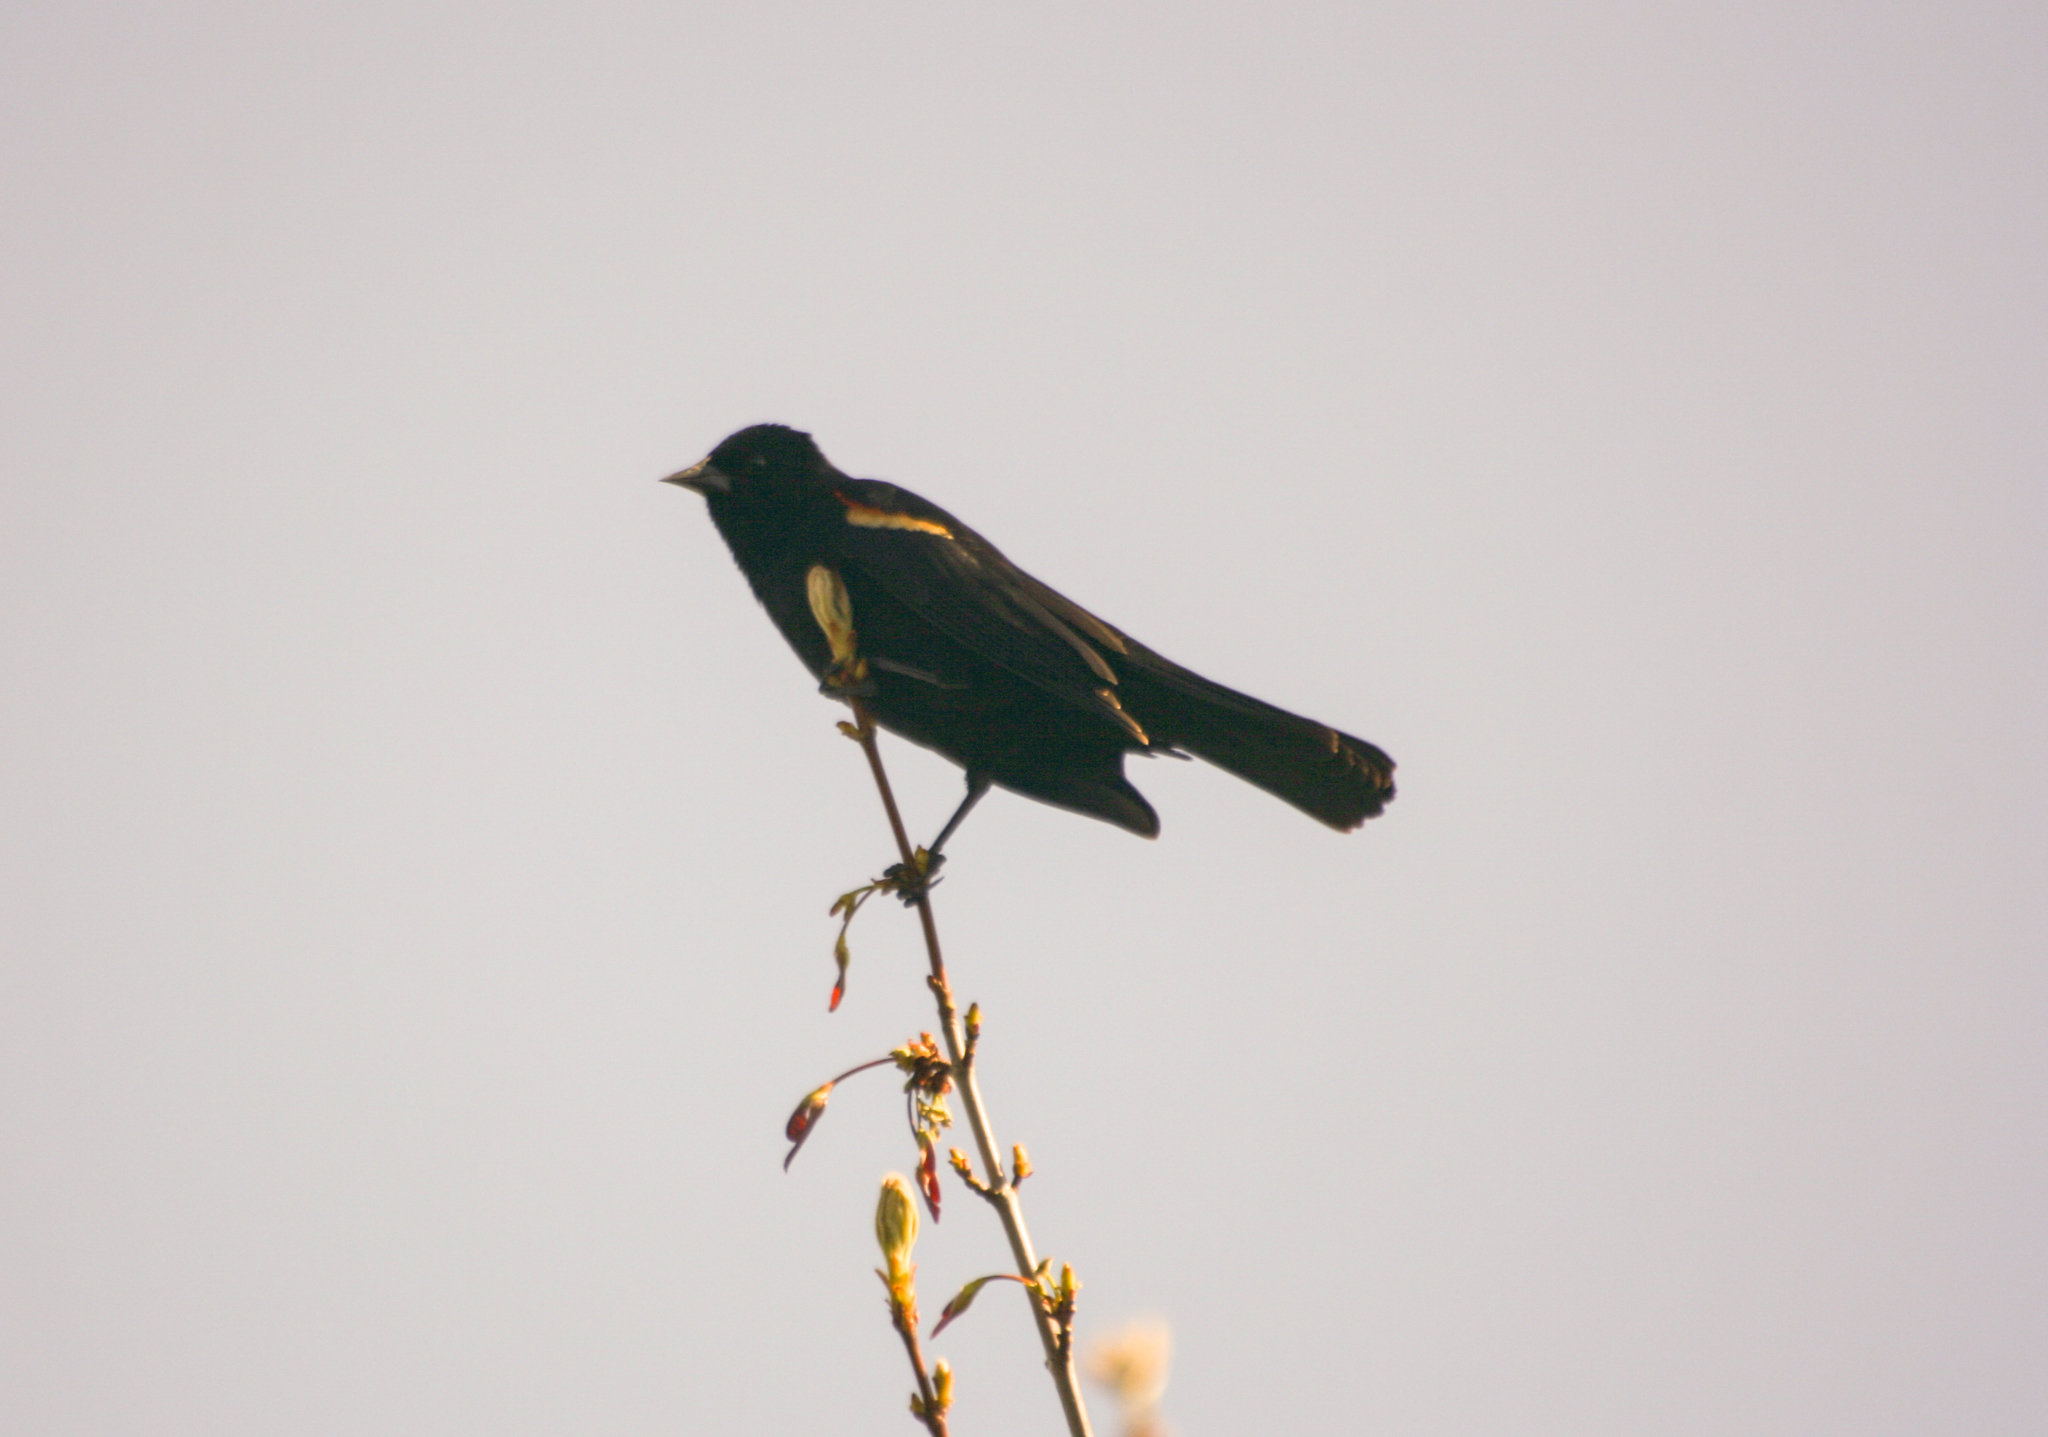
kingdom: Animalia
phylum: Chordata
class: Aves
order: Passeriformes
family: Icteridae
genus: Agelaius
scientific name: Agelaius phoeniceus
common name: Red-winged blackbird
